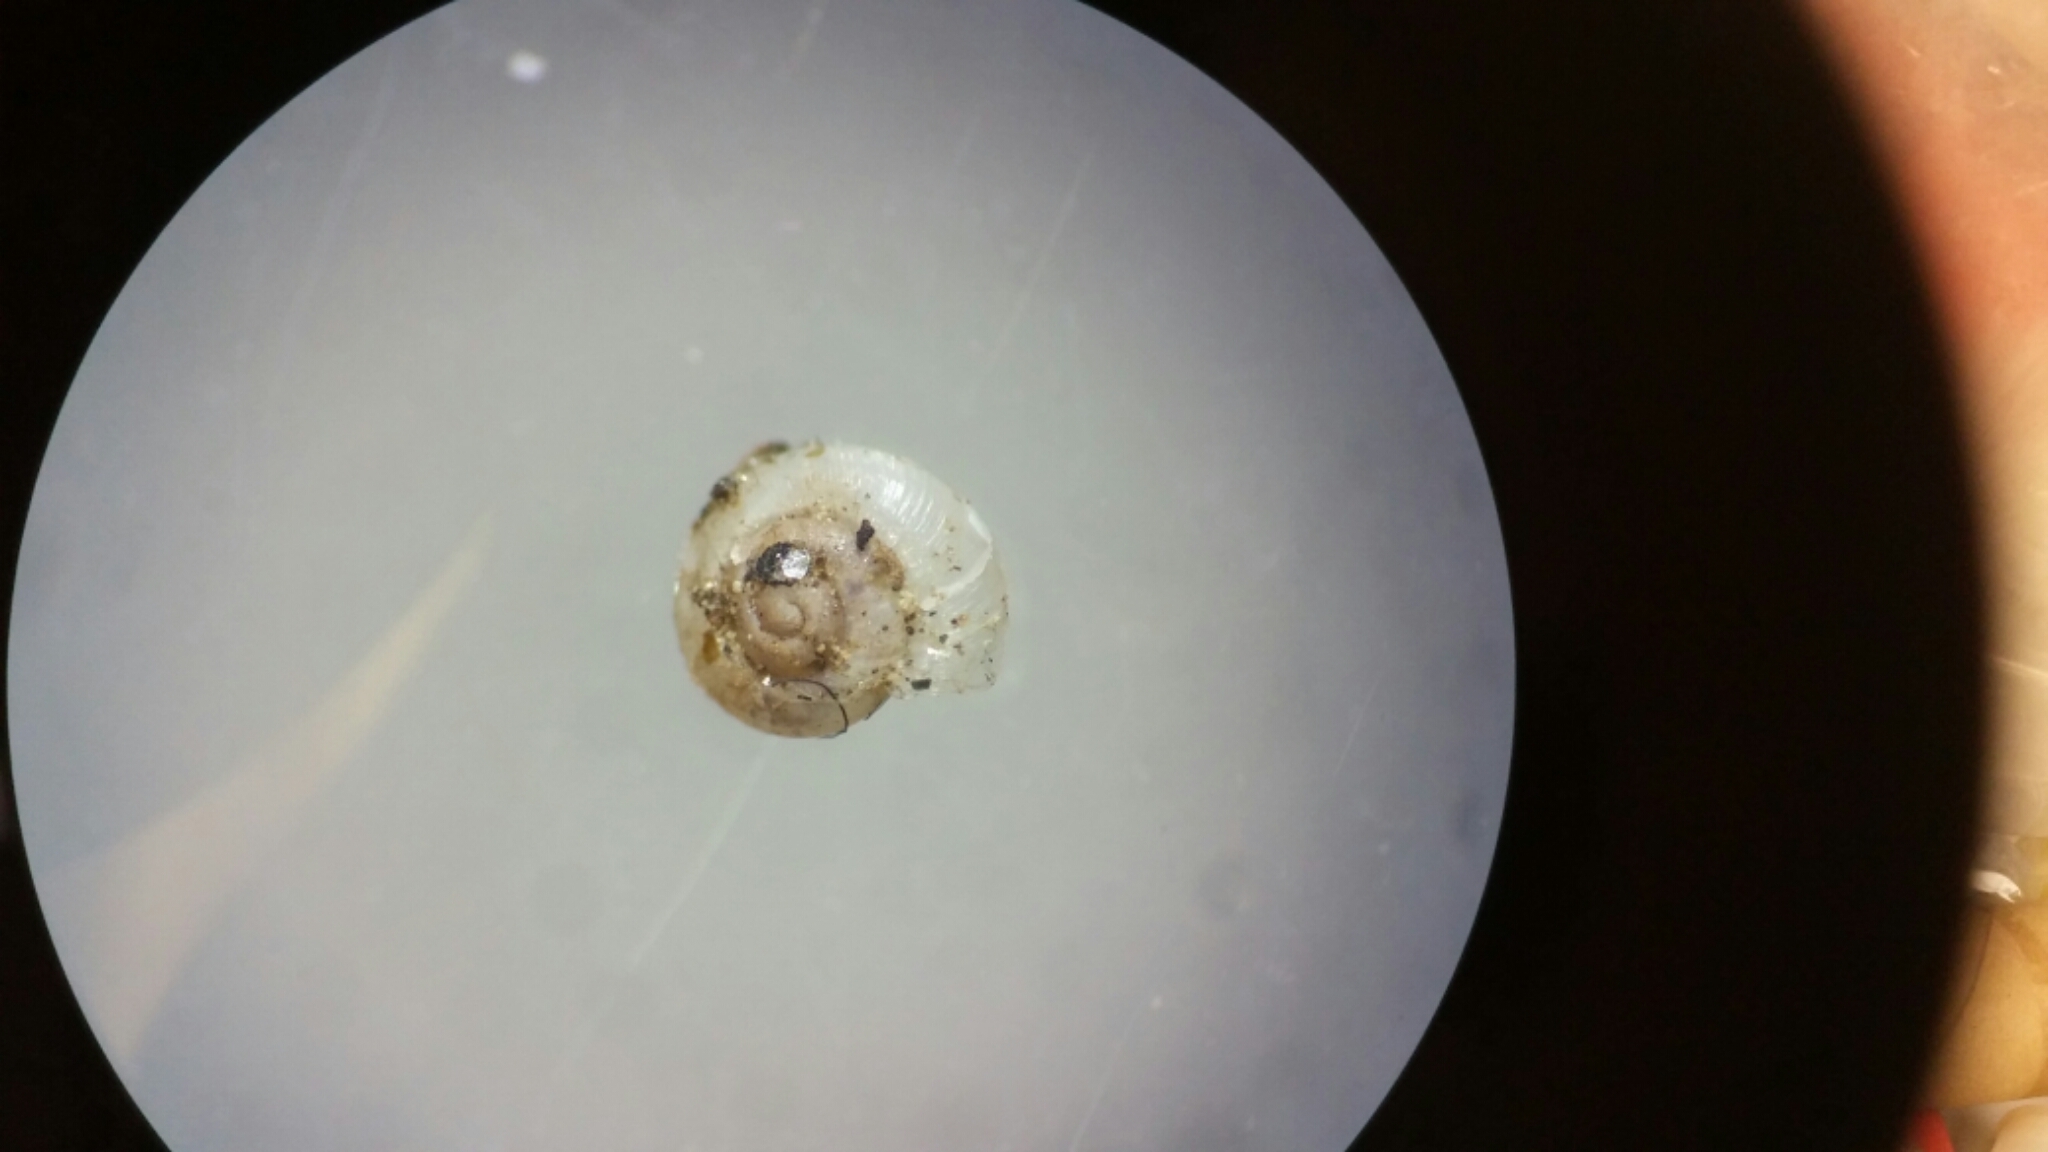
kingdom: Animalia
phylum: Mollusca
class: Gastropoda
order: Stylommatophora
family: Valloniidae
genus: Vallonia
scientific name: Vallonia pulchella
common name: Smooth grass snail
